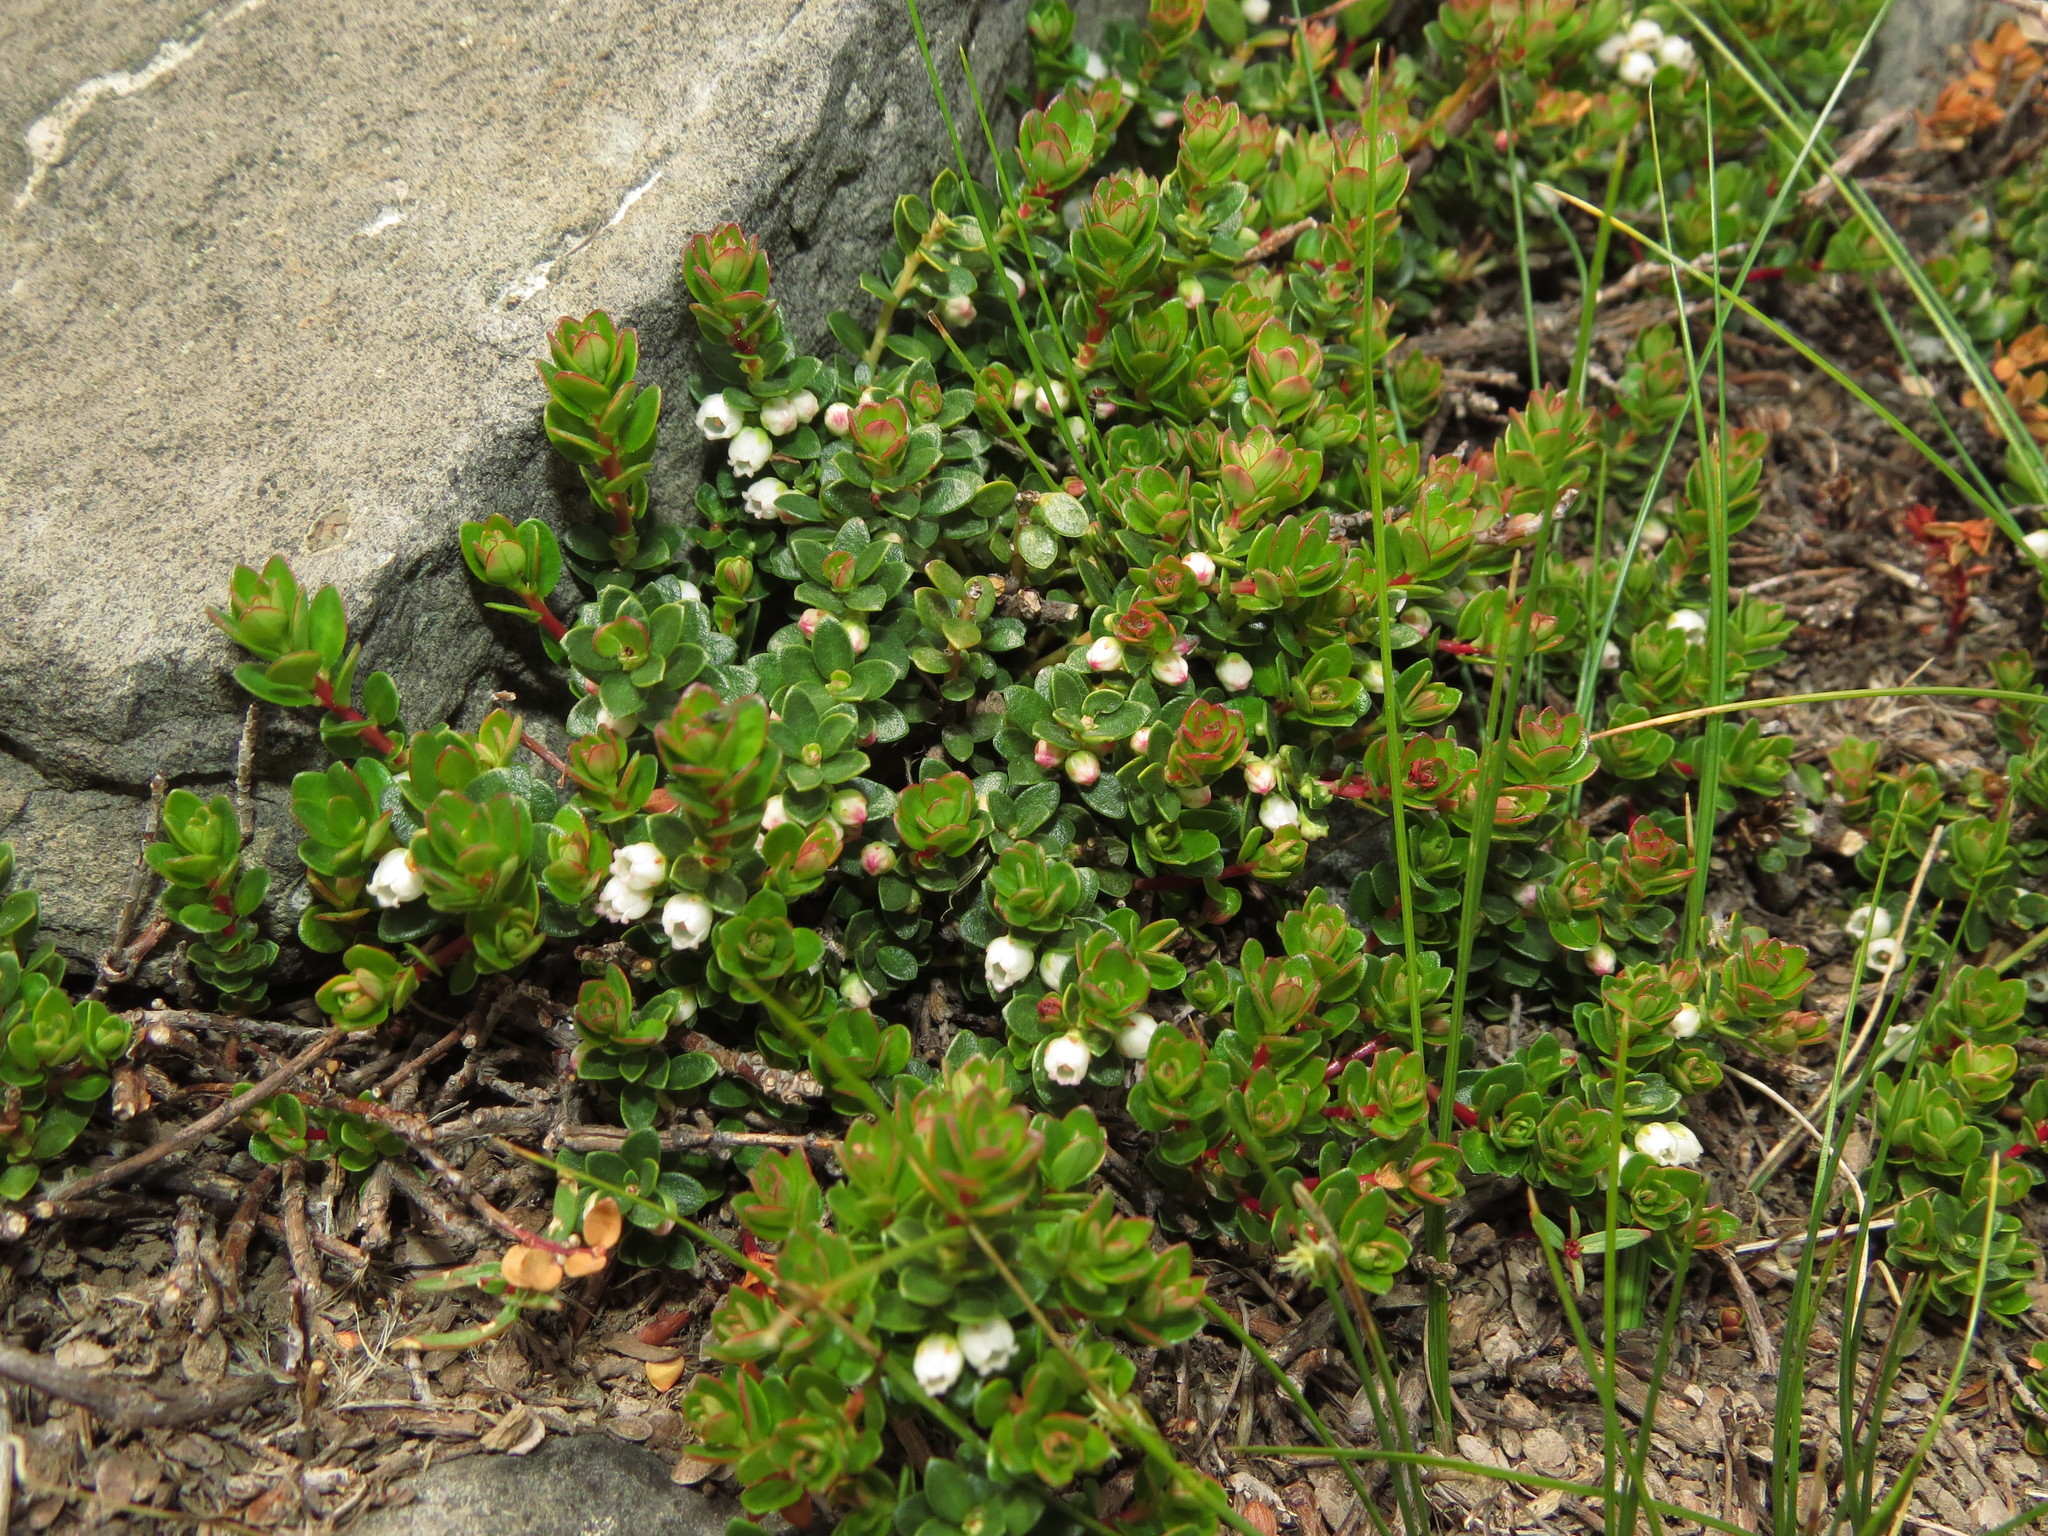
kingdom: Plantae
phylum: Tracheophyta
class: Magnoliopsida
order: Ericales
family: Ericaceae
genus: Gaultheria
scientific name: Gaultheria pumila
